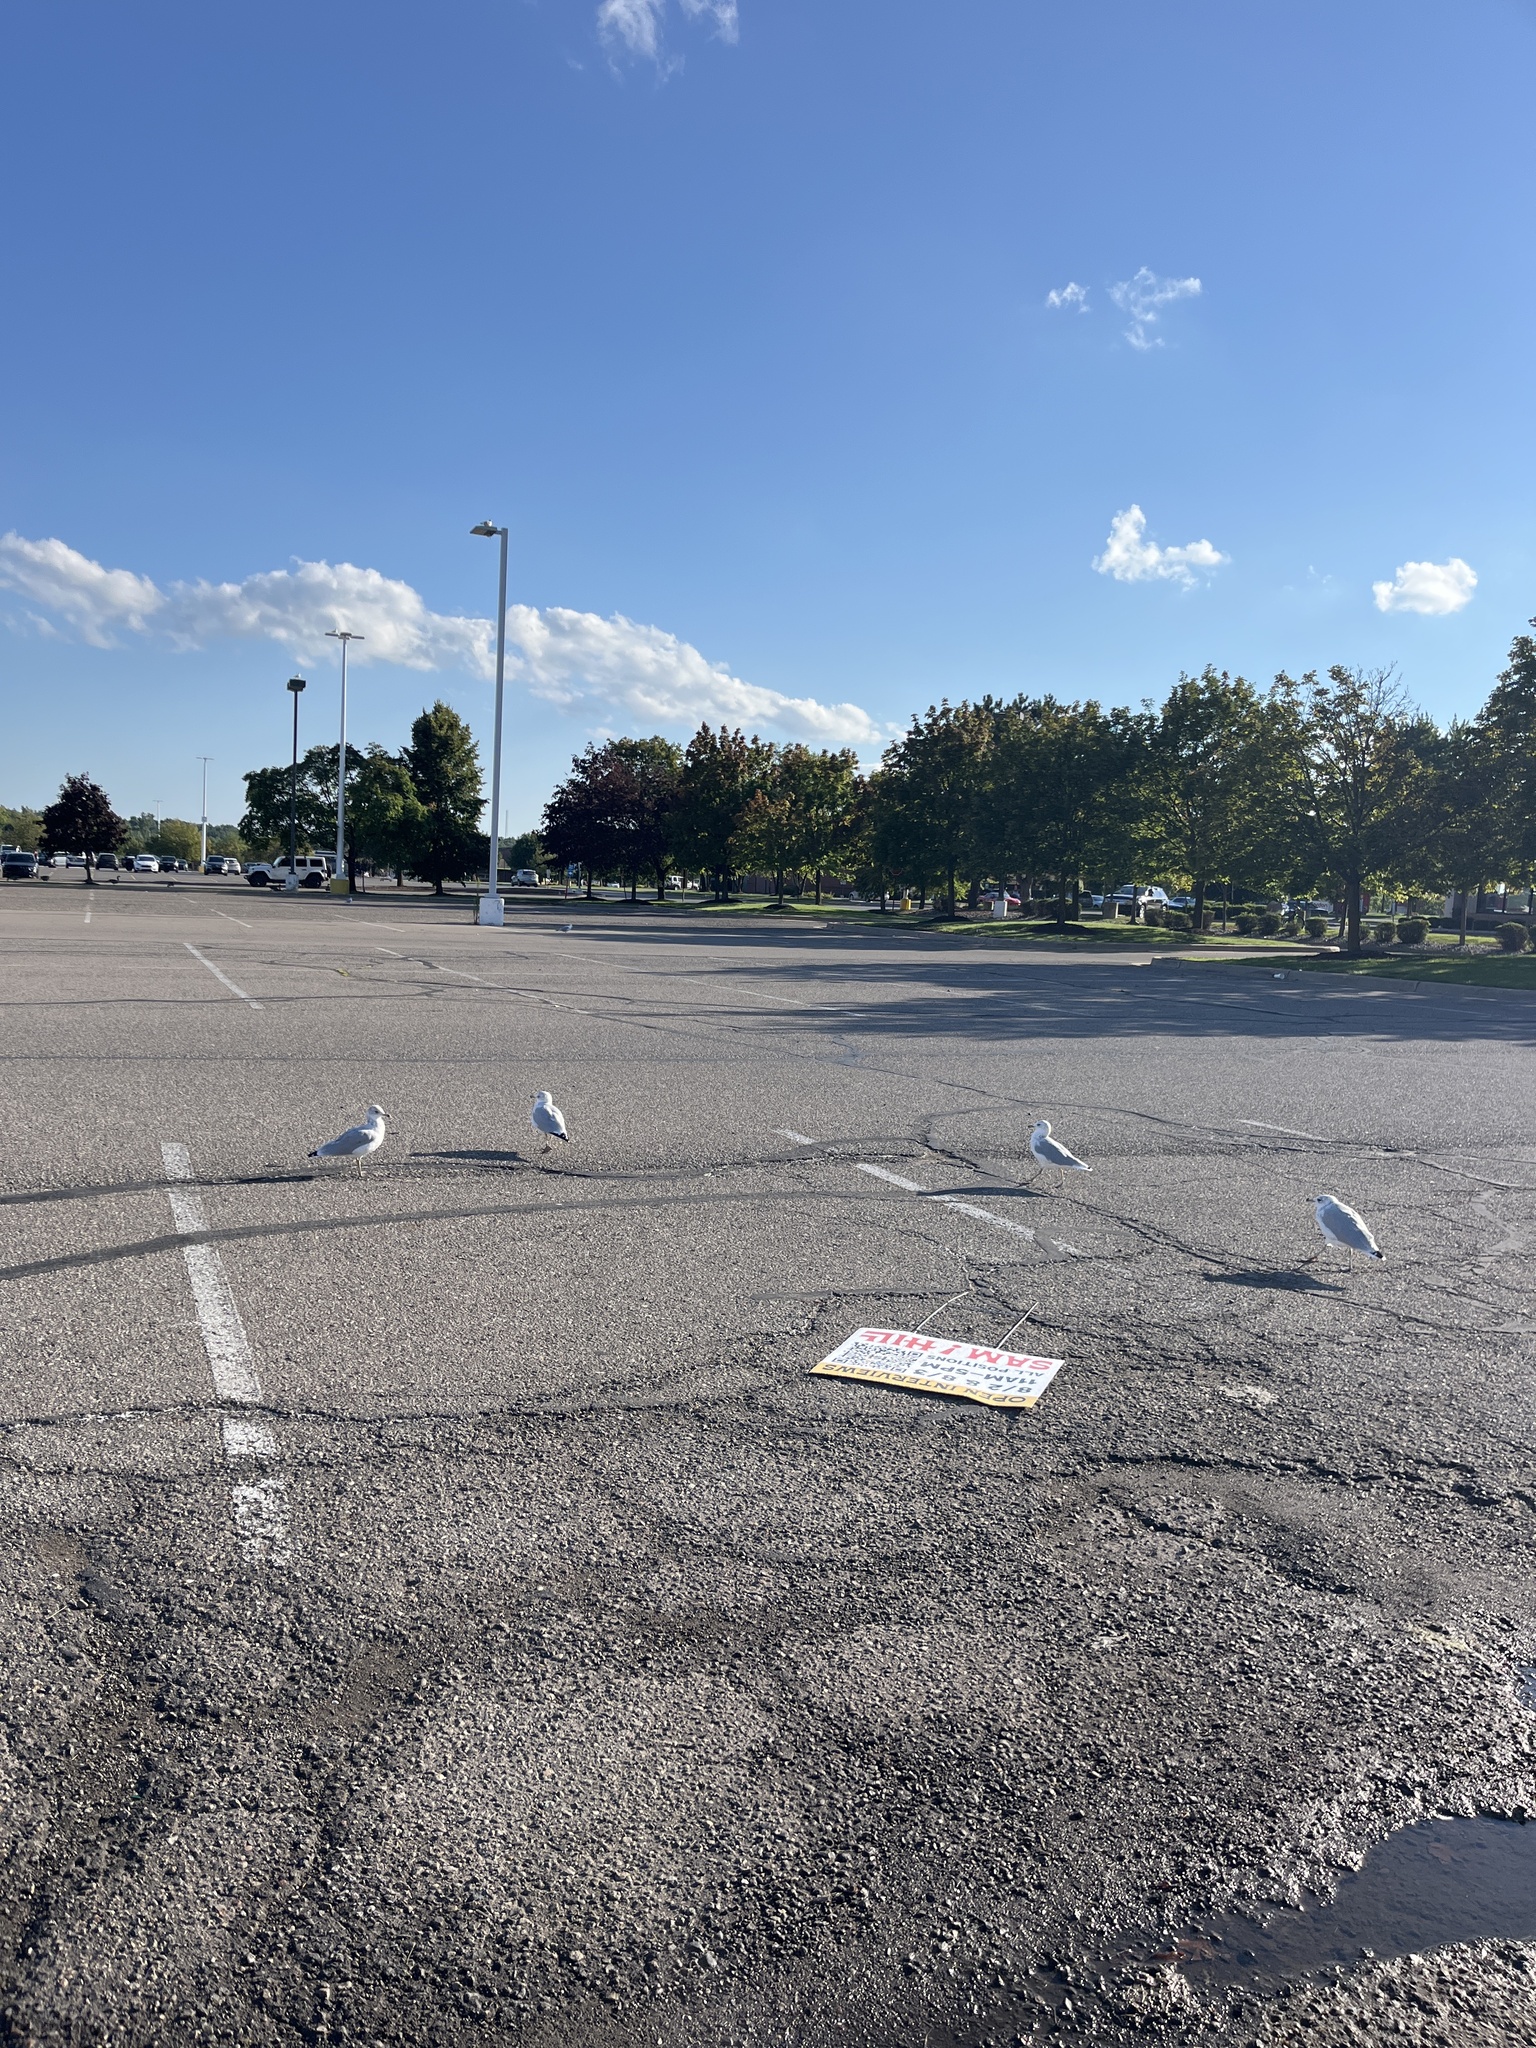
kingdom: Animalia
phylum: Chordata
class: Aves
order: Charadriiformes
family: Laridae
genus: Larus
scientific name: Larus delawarensis
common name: Ring-billed gull
